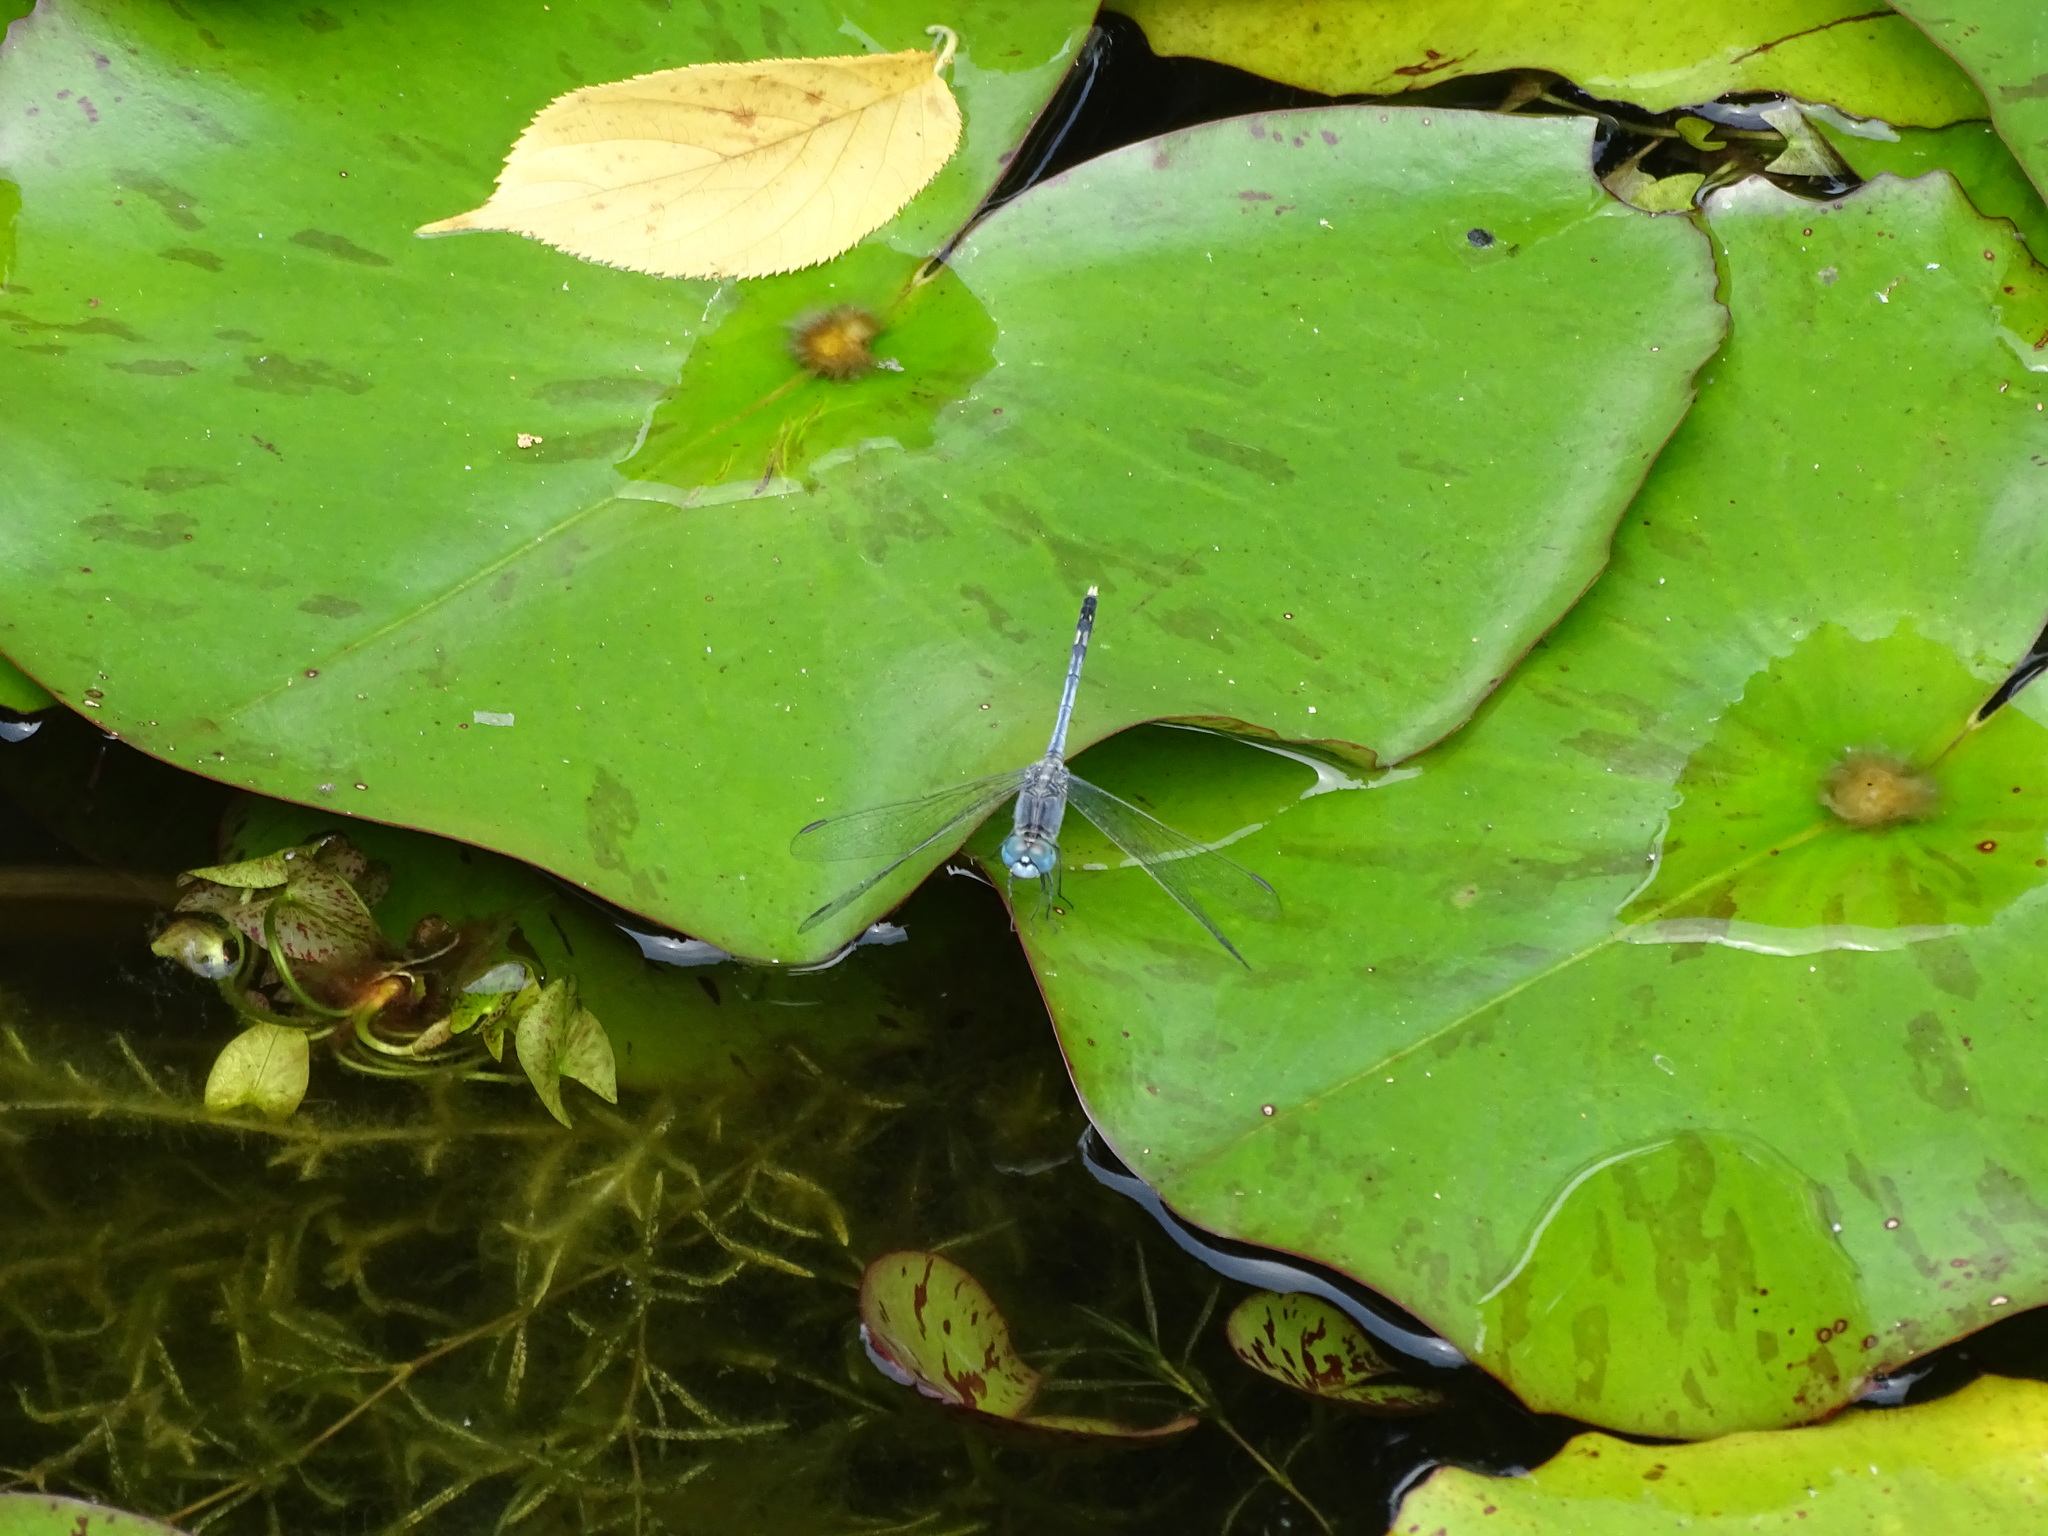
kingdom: Animalia
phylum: Arthropoda
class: Insecta
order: Odonata
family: Libellulidae
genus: Diplacodes
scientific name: Diplacodes trivialis
